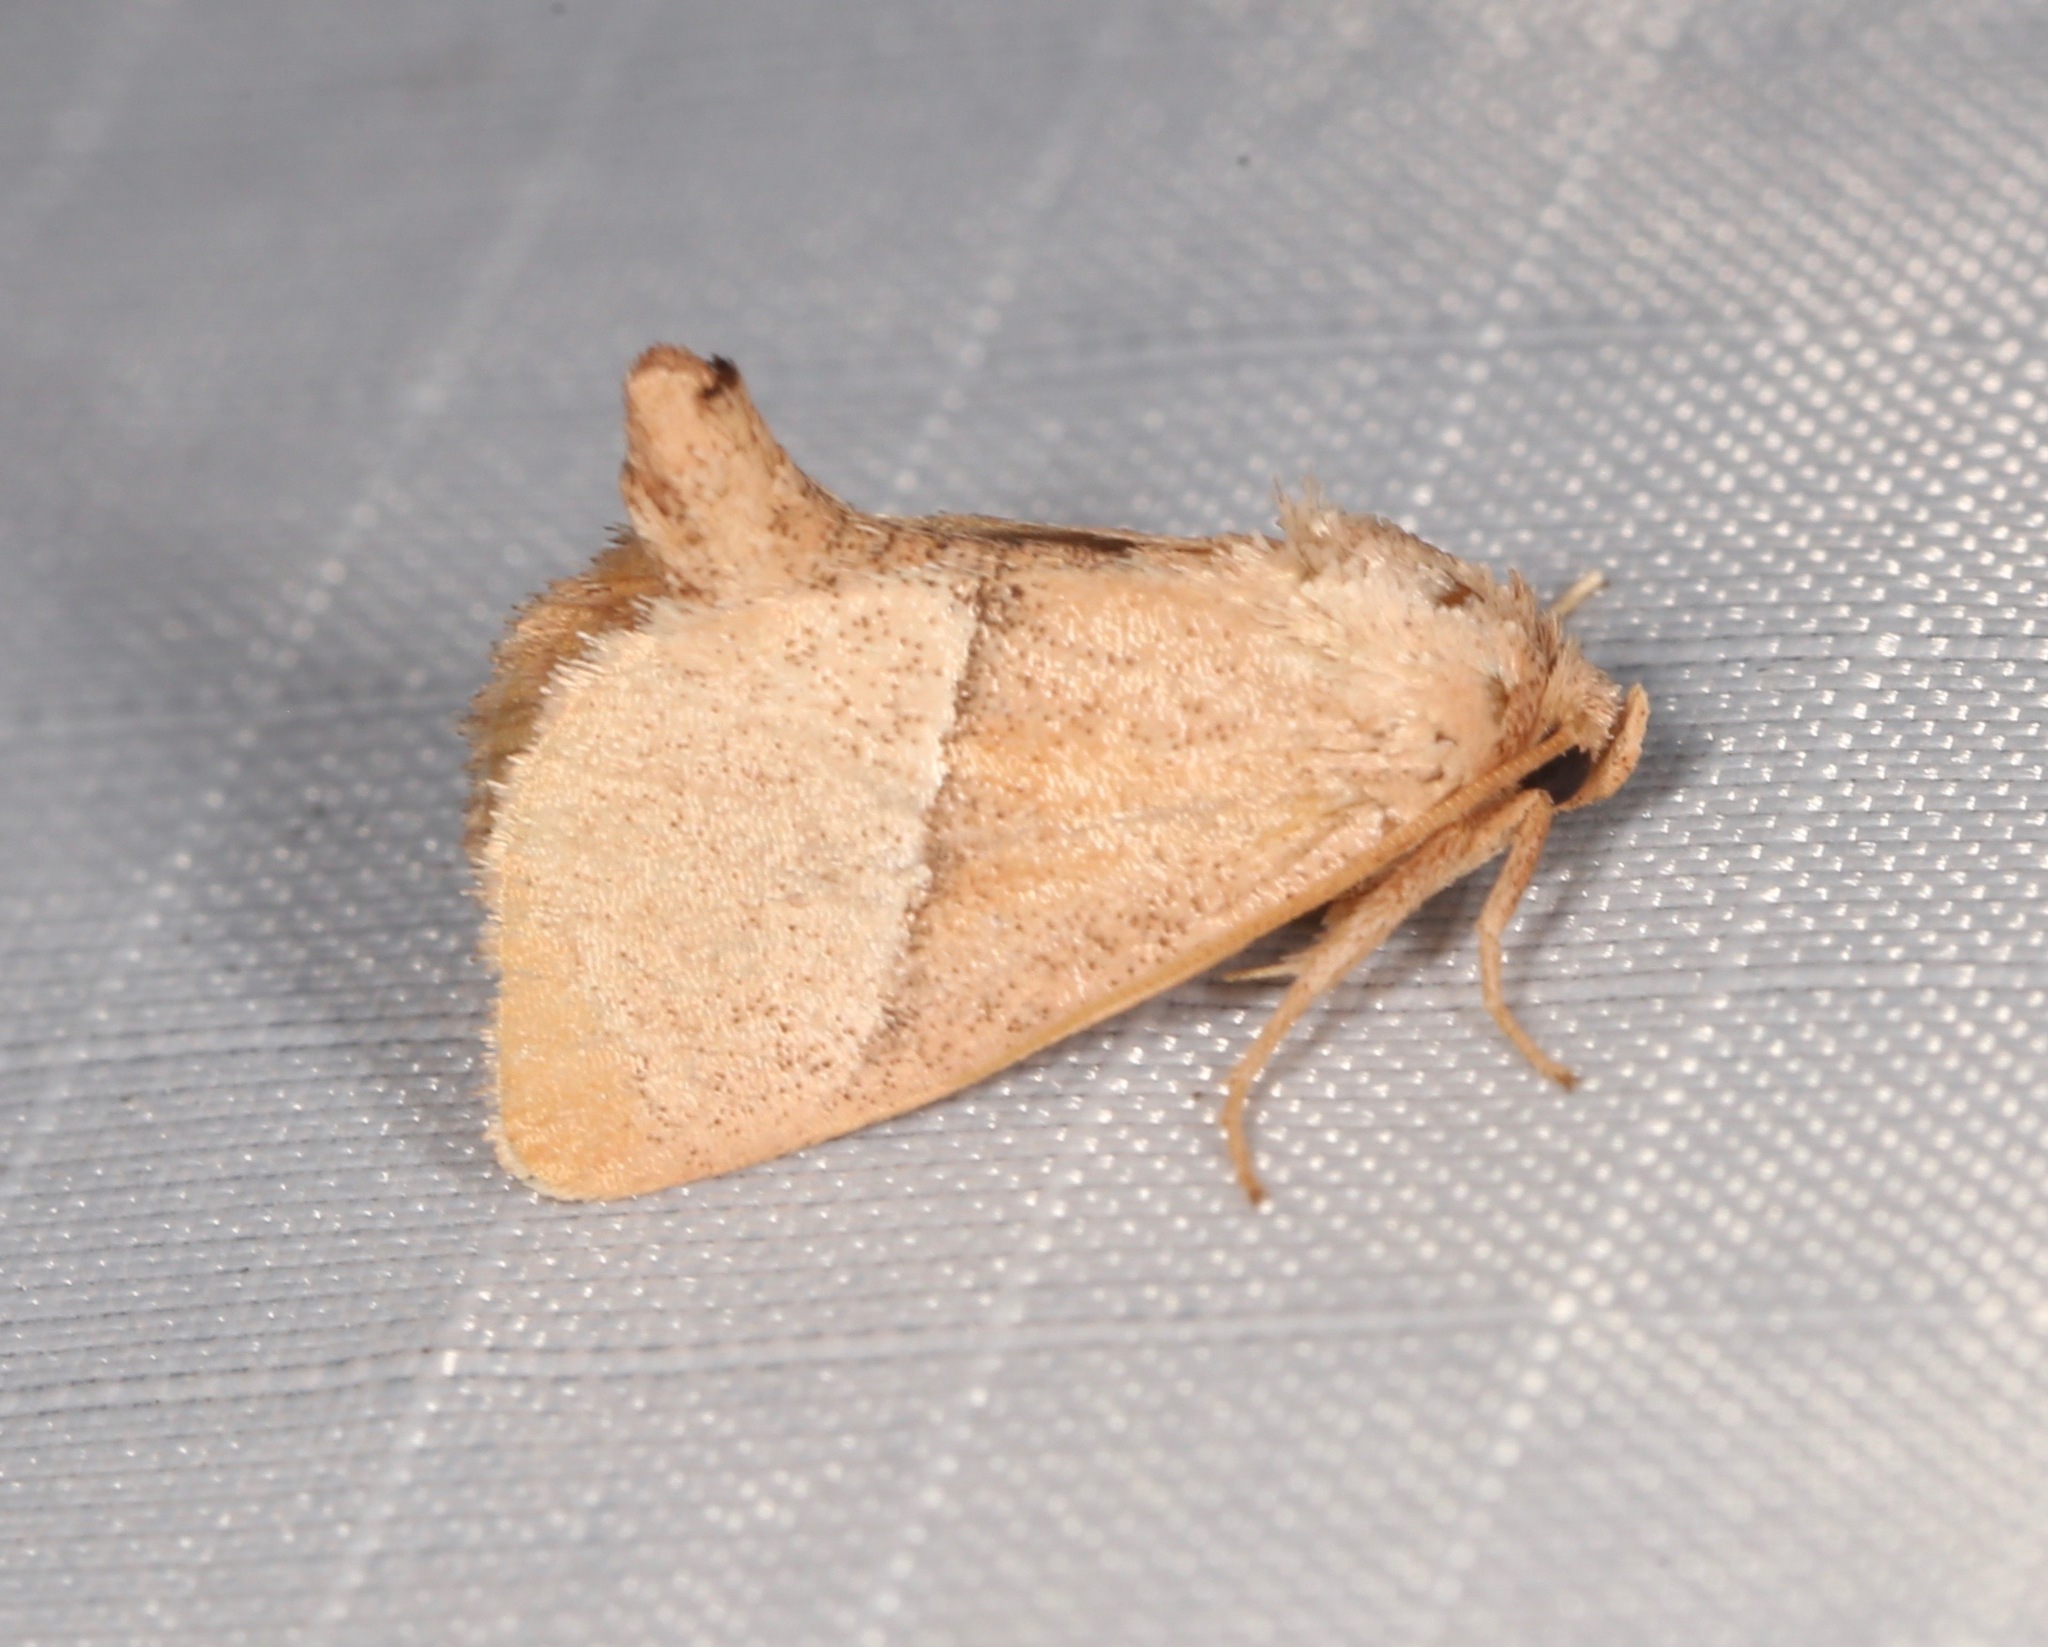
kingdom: Animalia
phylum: Arthropoda
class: Insecta
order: Lepidoptera
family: Limacodidae
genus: Apoda
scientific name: Apoda rectilinea
